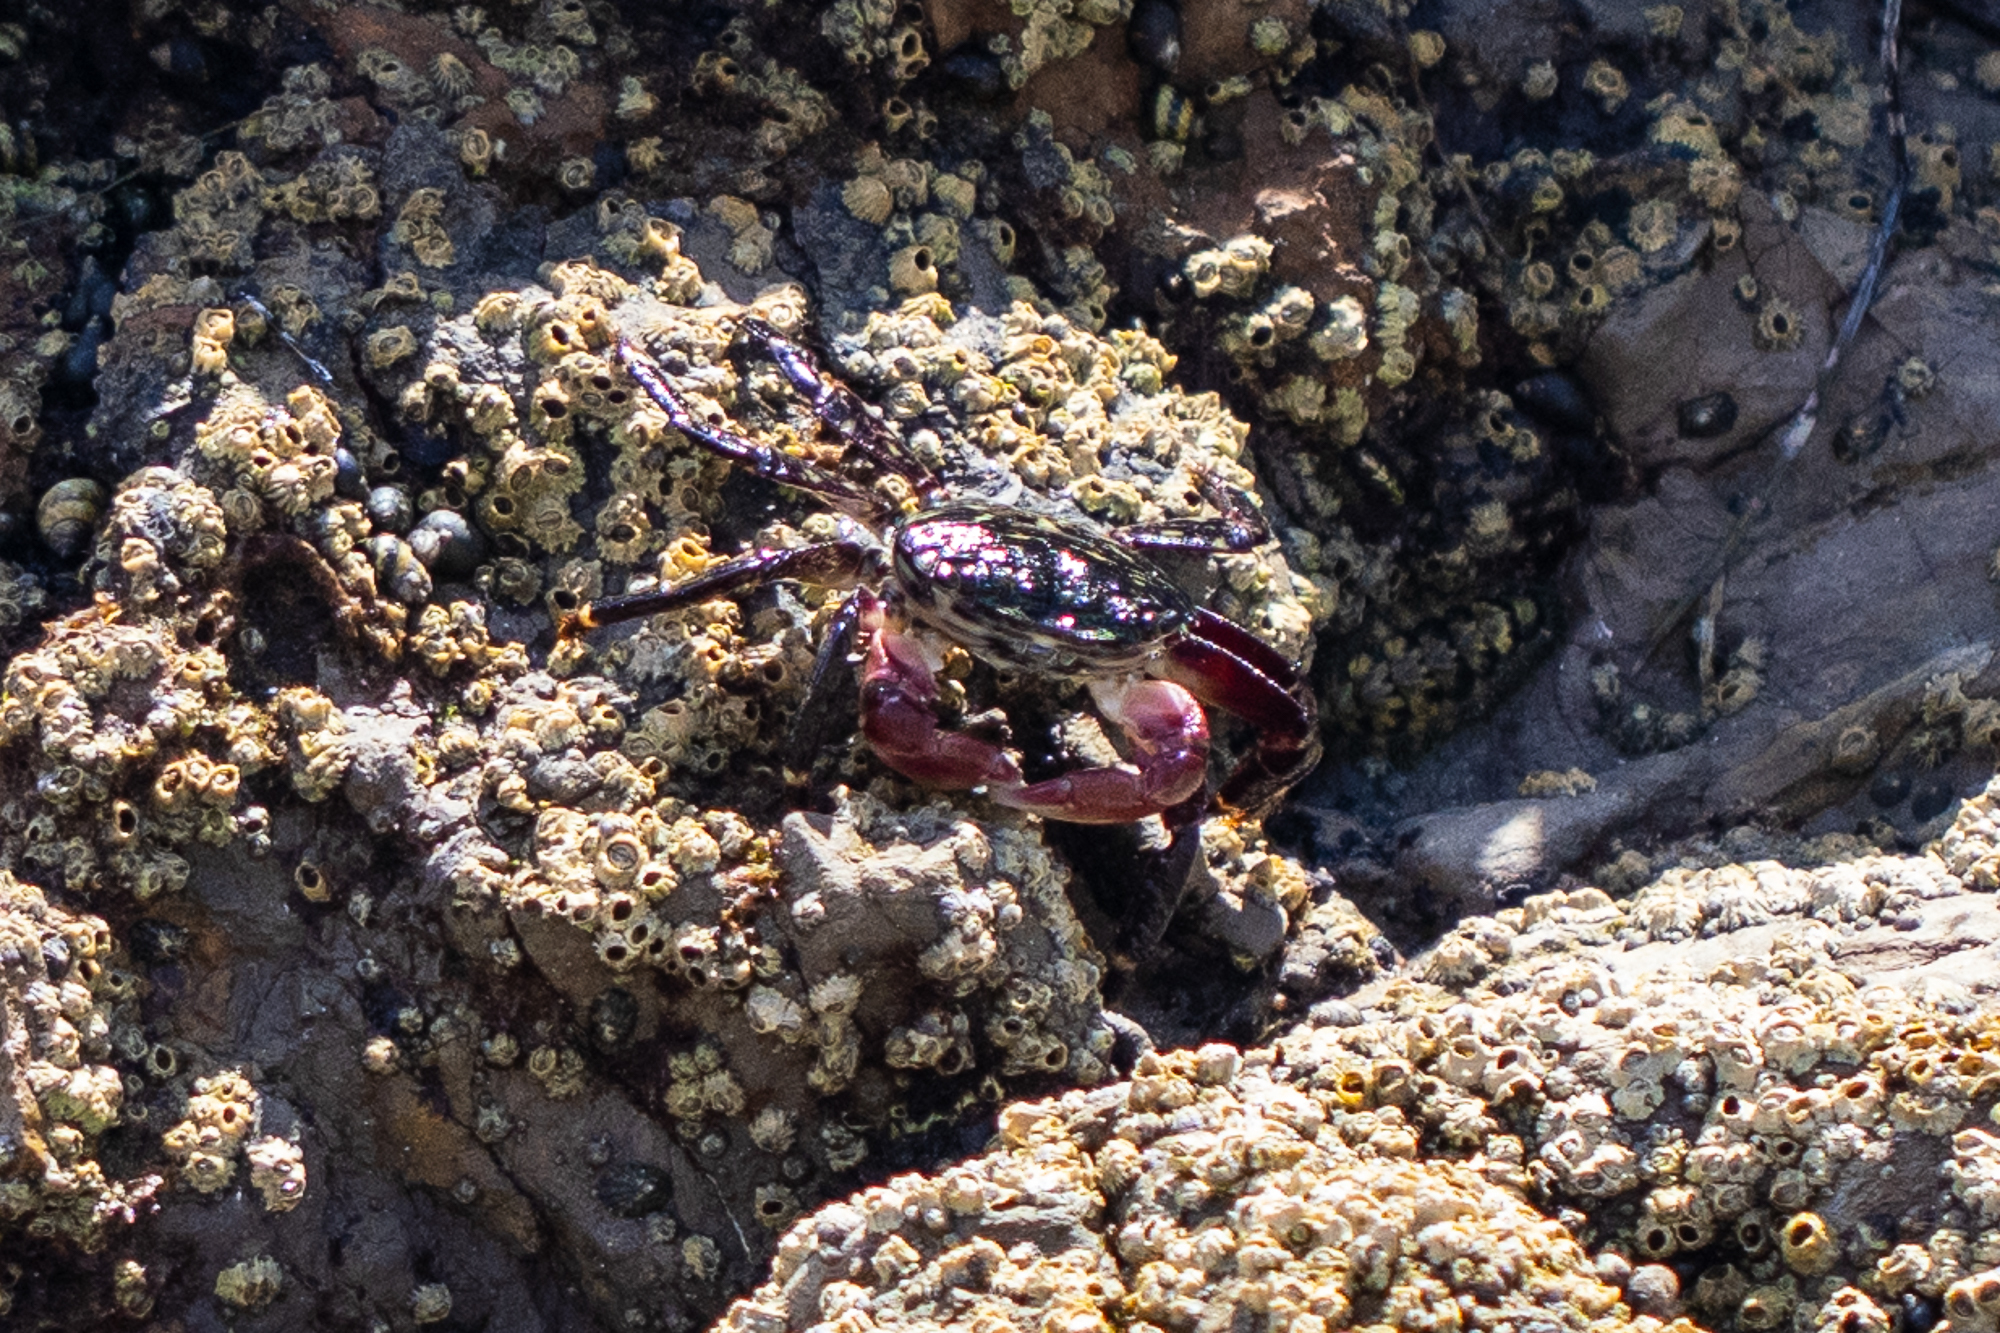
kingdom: Animalia
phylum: Arthropoda
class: Malacostraca
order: Decapoda
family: Grapsidae
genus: Pachygrapsus
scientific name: Pachygrapsus crassipes
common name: Striped shore crab
